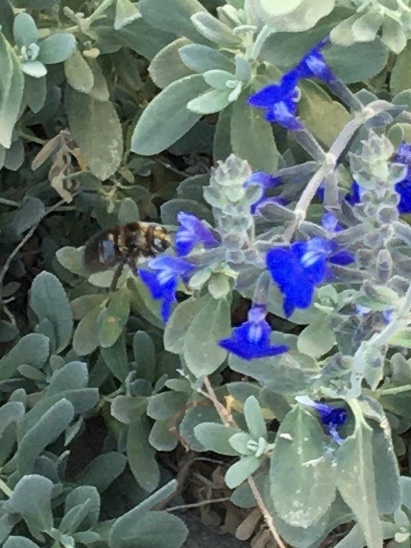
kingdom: Animalia
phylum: Arthropoda
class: Insecta
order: Hymenoptera
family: Apidae
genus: Xylocopa
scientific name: Xylocopa tabaniformis
